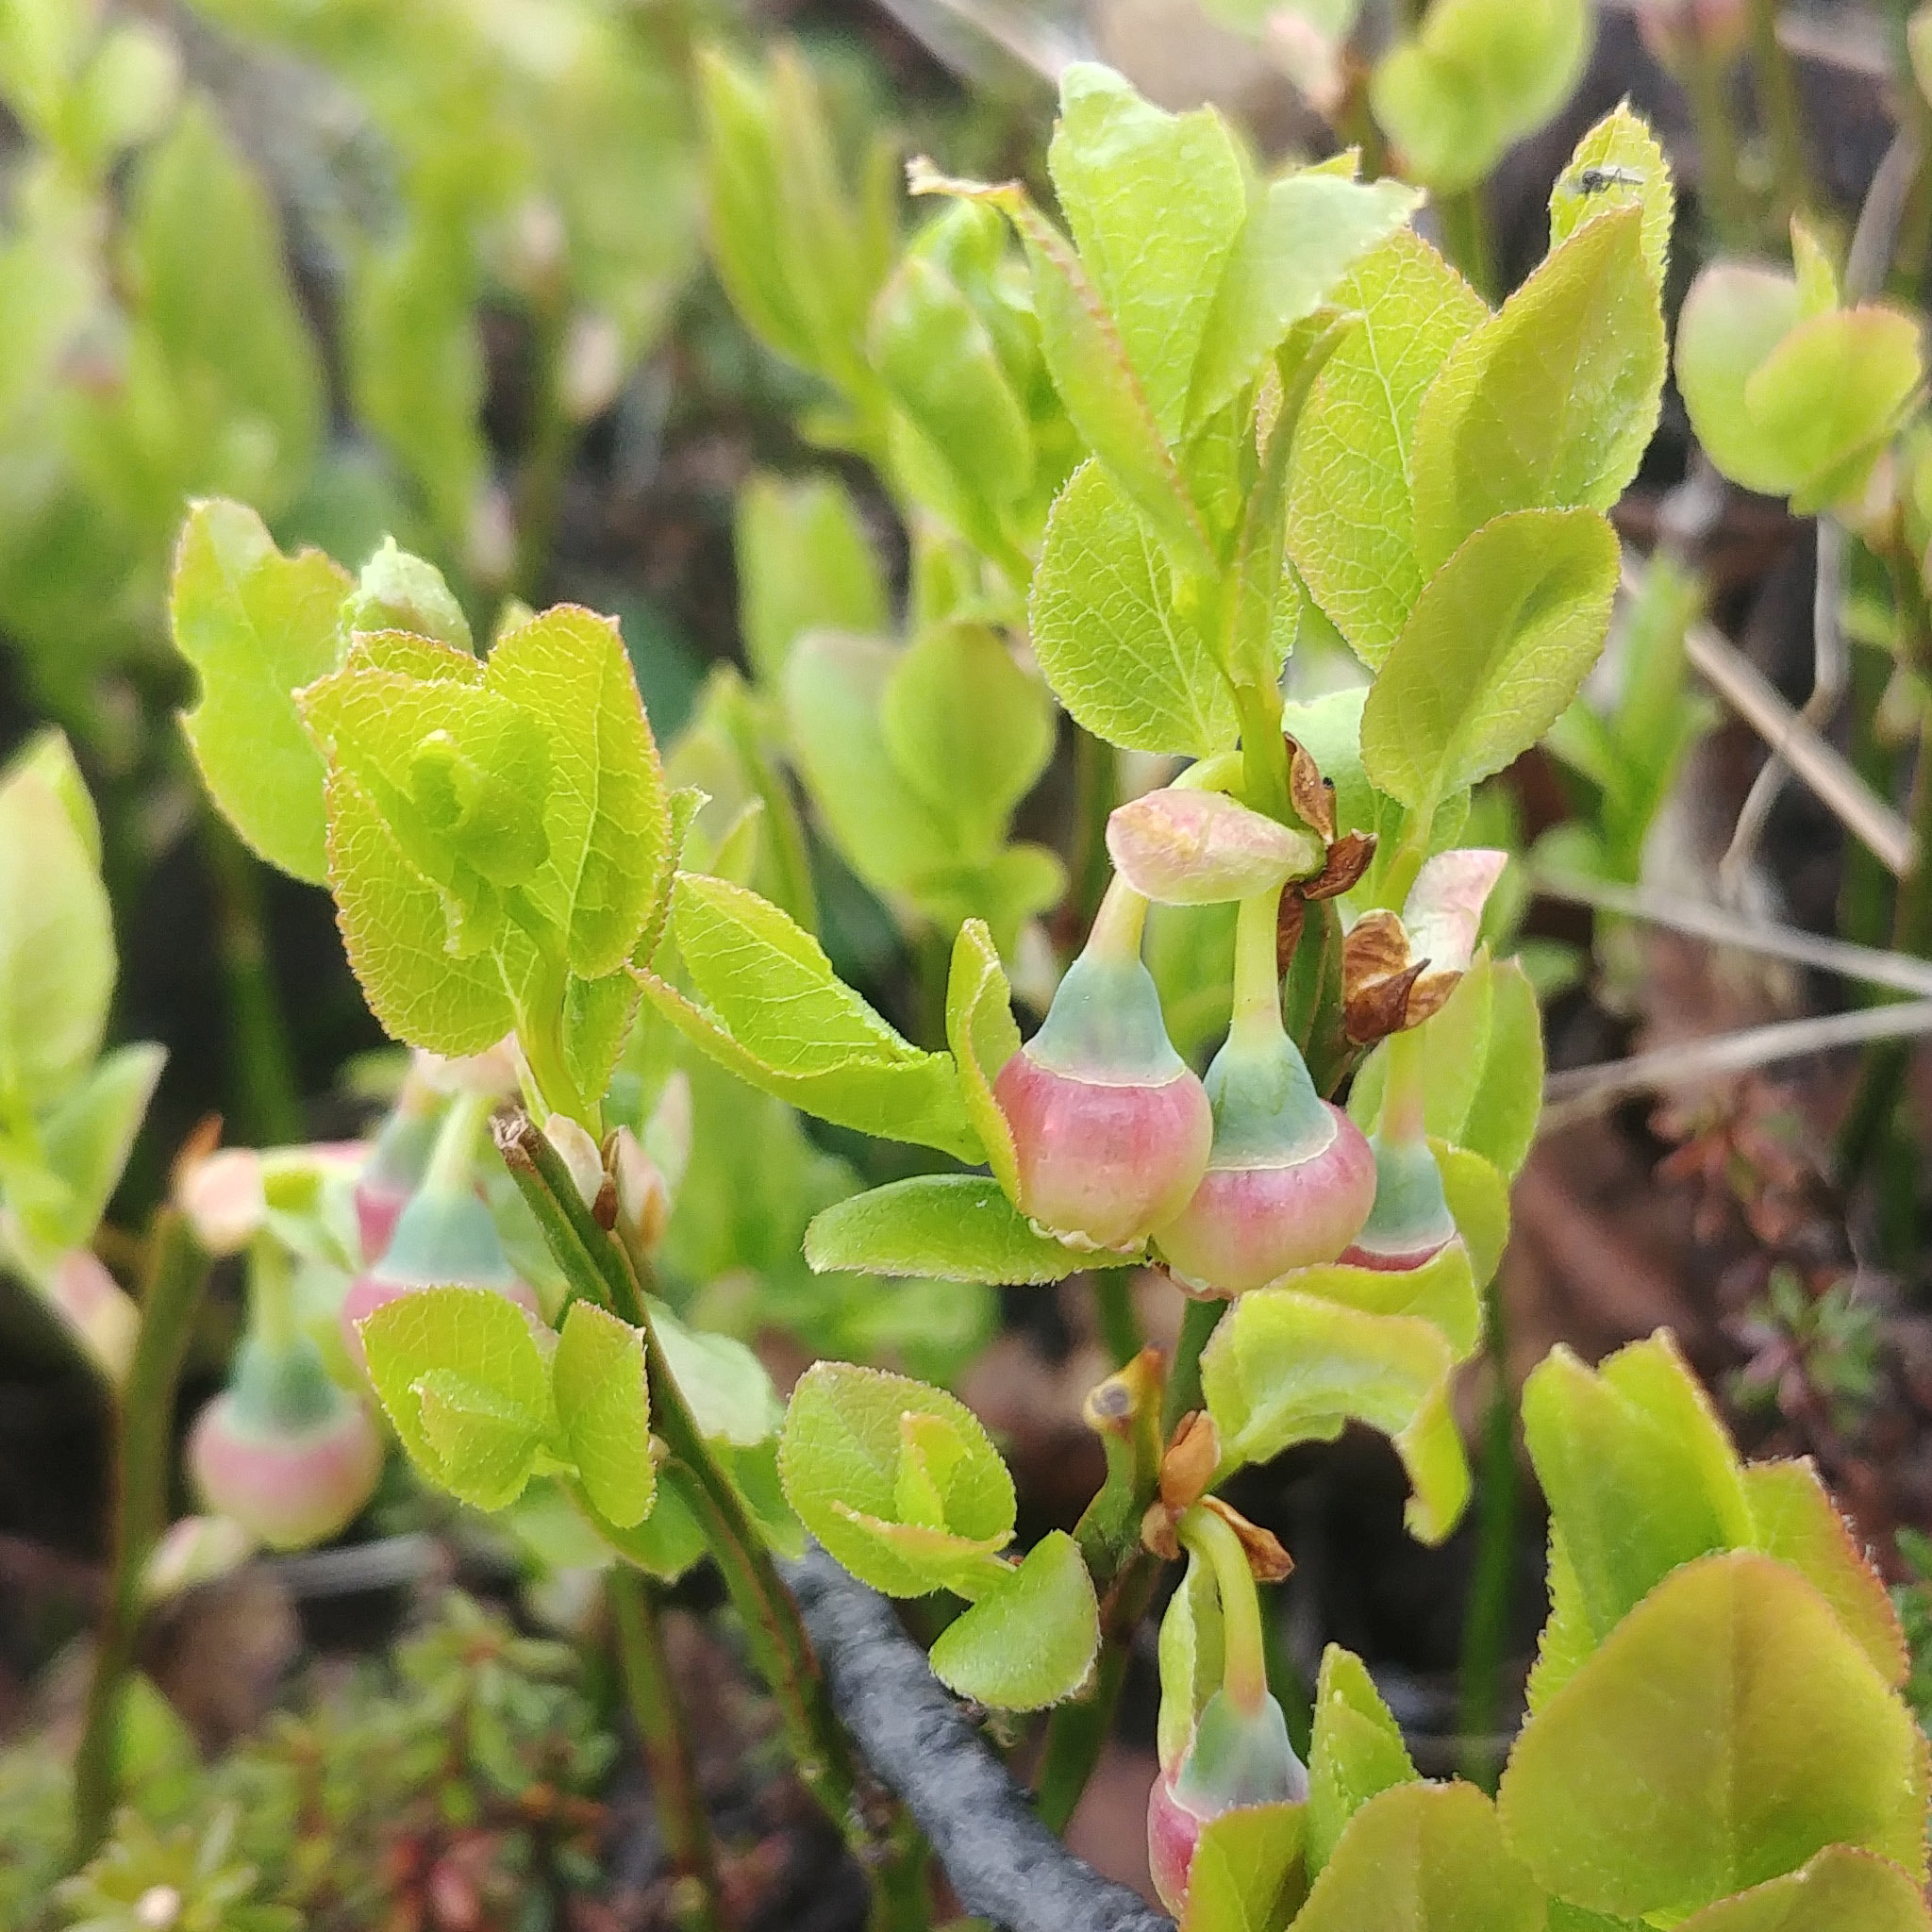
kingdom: Plantae
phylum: Tracheophyta
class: Magnoliopsida
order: Ericales
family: Ericaceae
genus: Vaccinium
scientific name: Vaccinium myrtillus
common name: Bilberry
